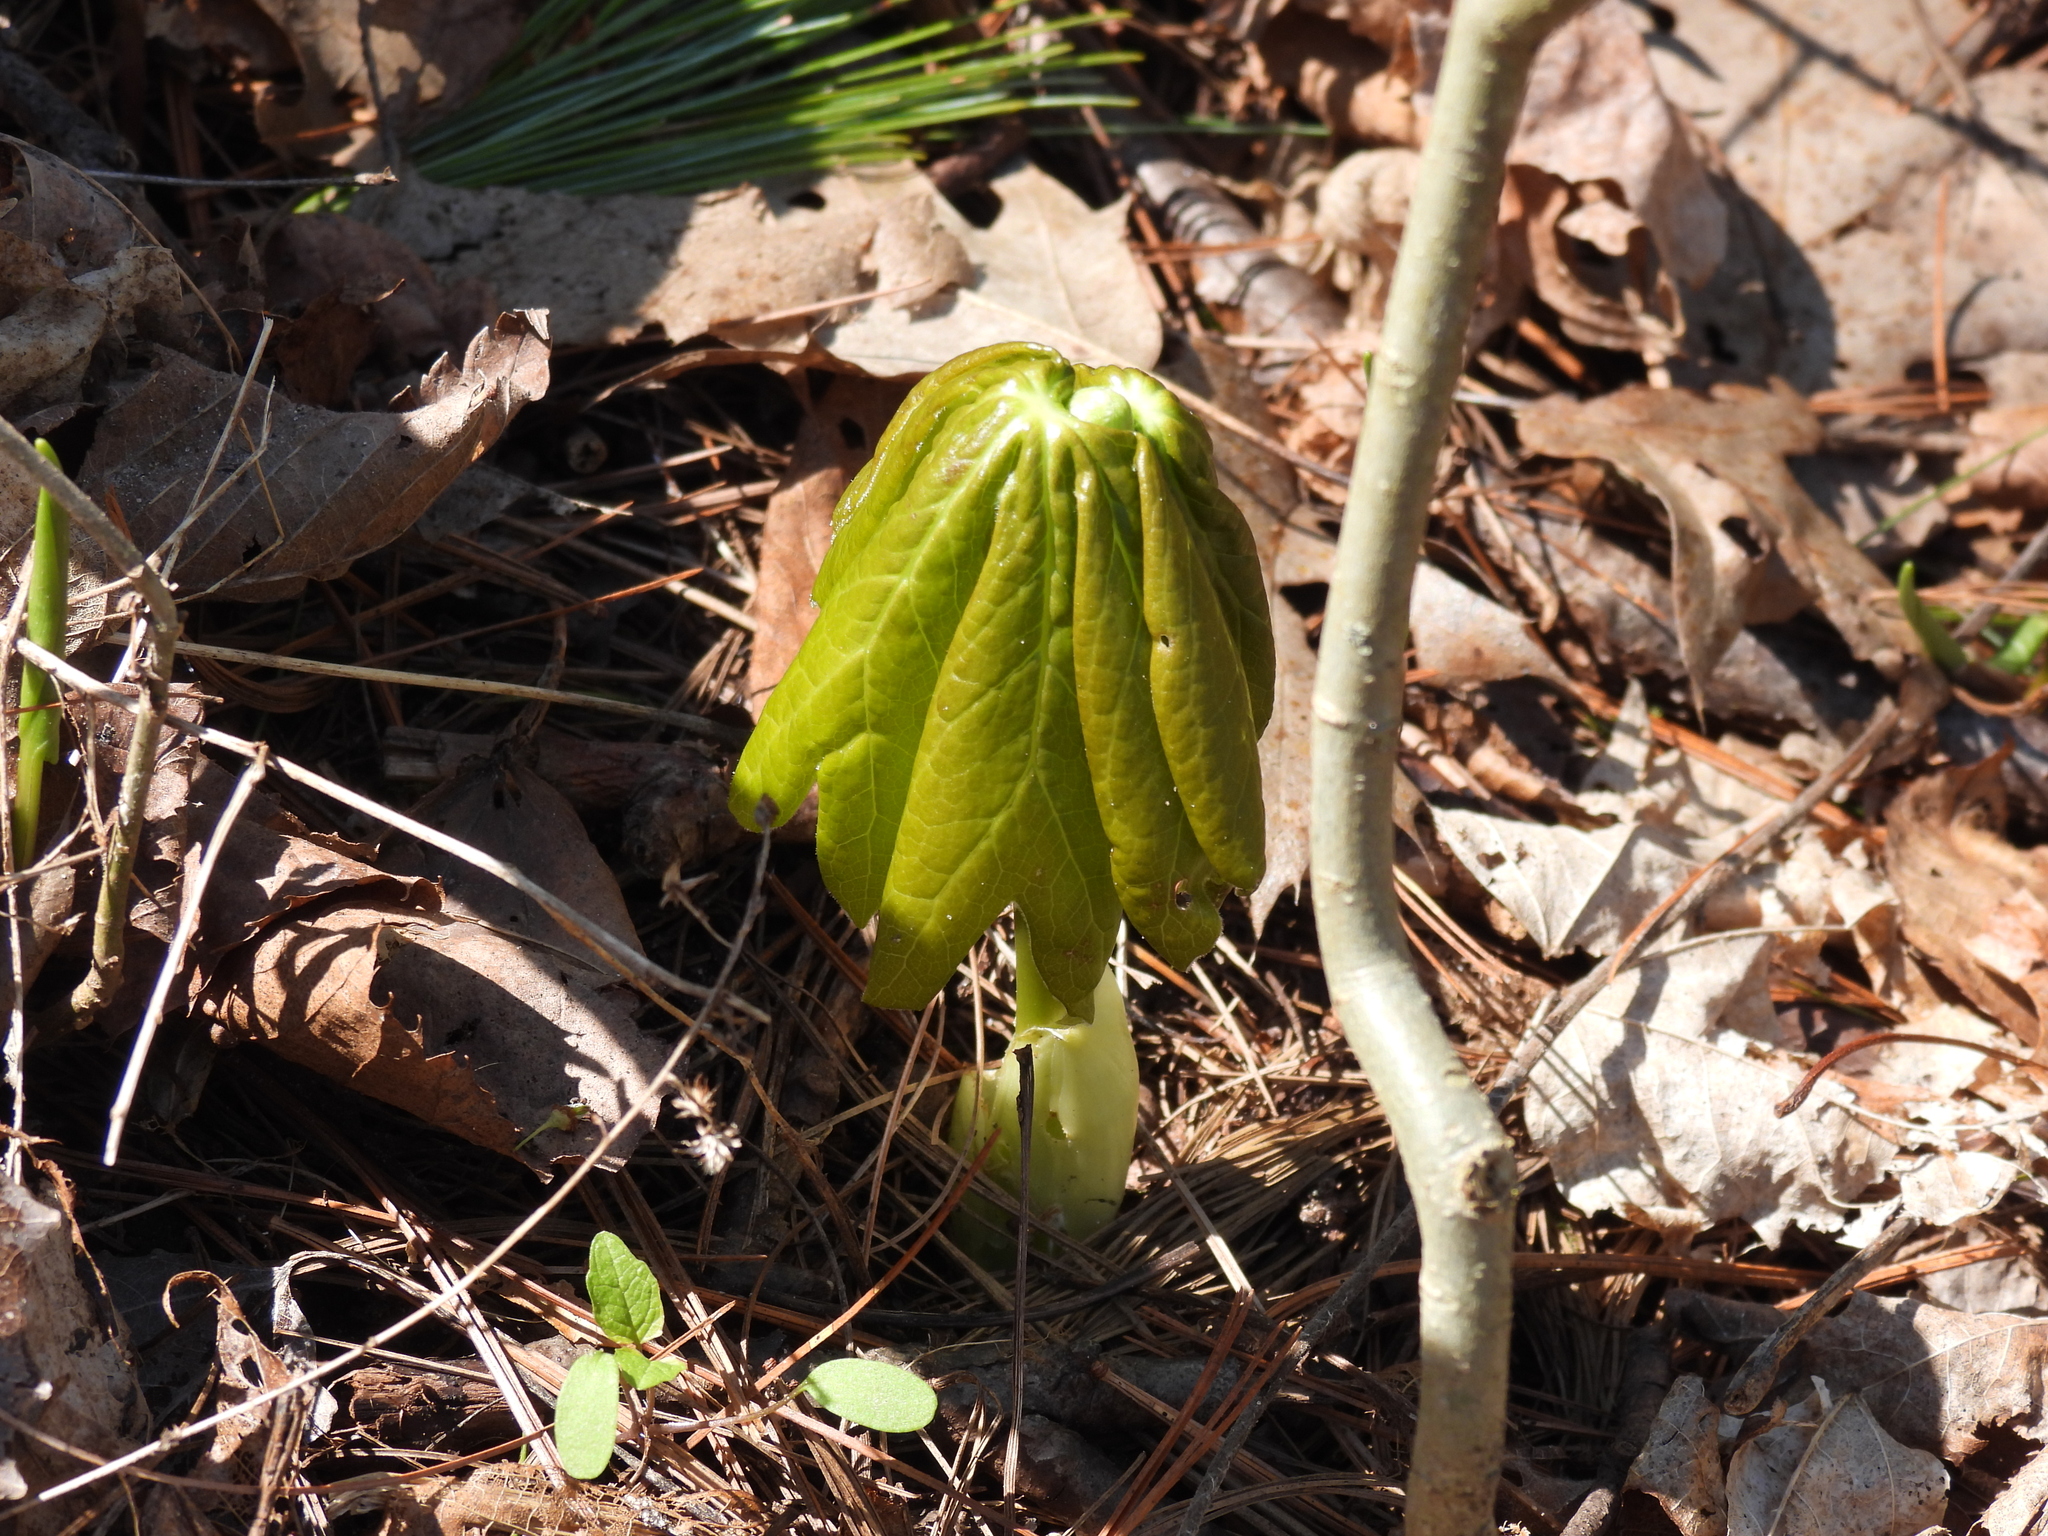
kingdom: Plantae
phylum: Tracheophyta
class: Magnoliopsida
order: Ranunculales
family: Berberidaceae
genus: Podophyllum
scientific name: Podophyllum peltatum
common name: Wild mandrake
